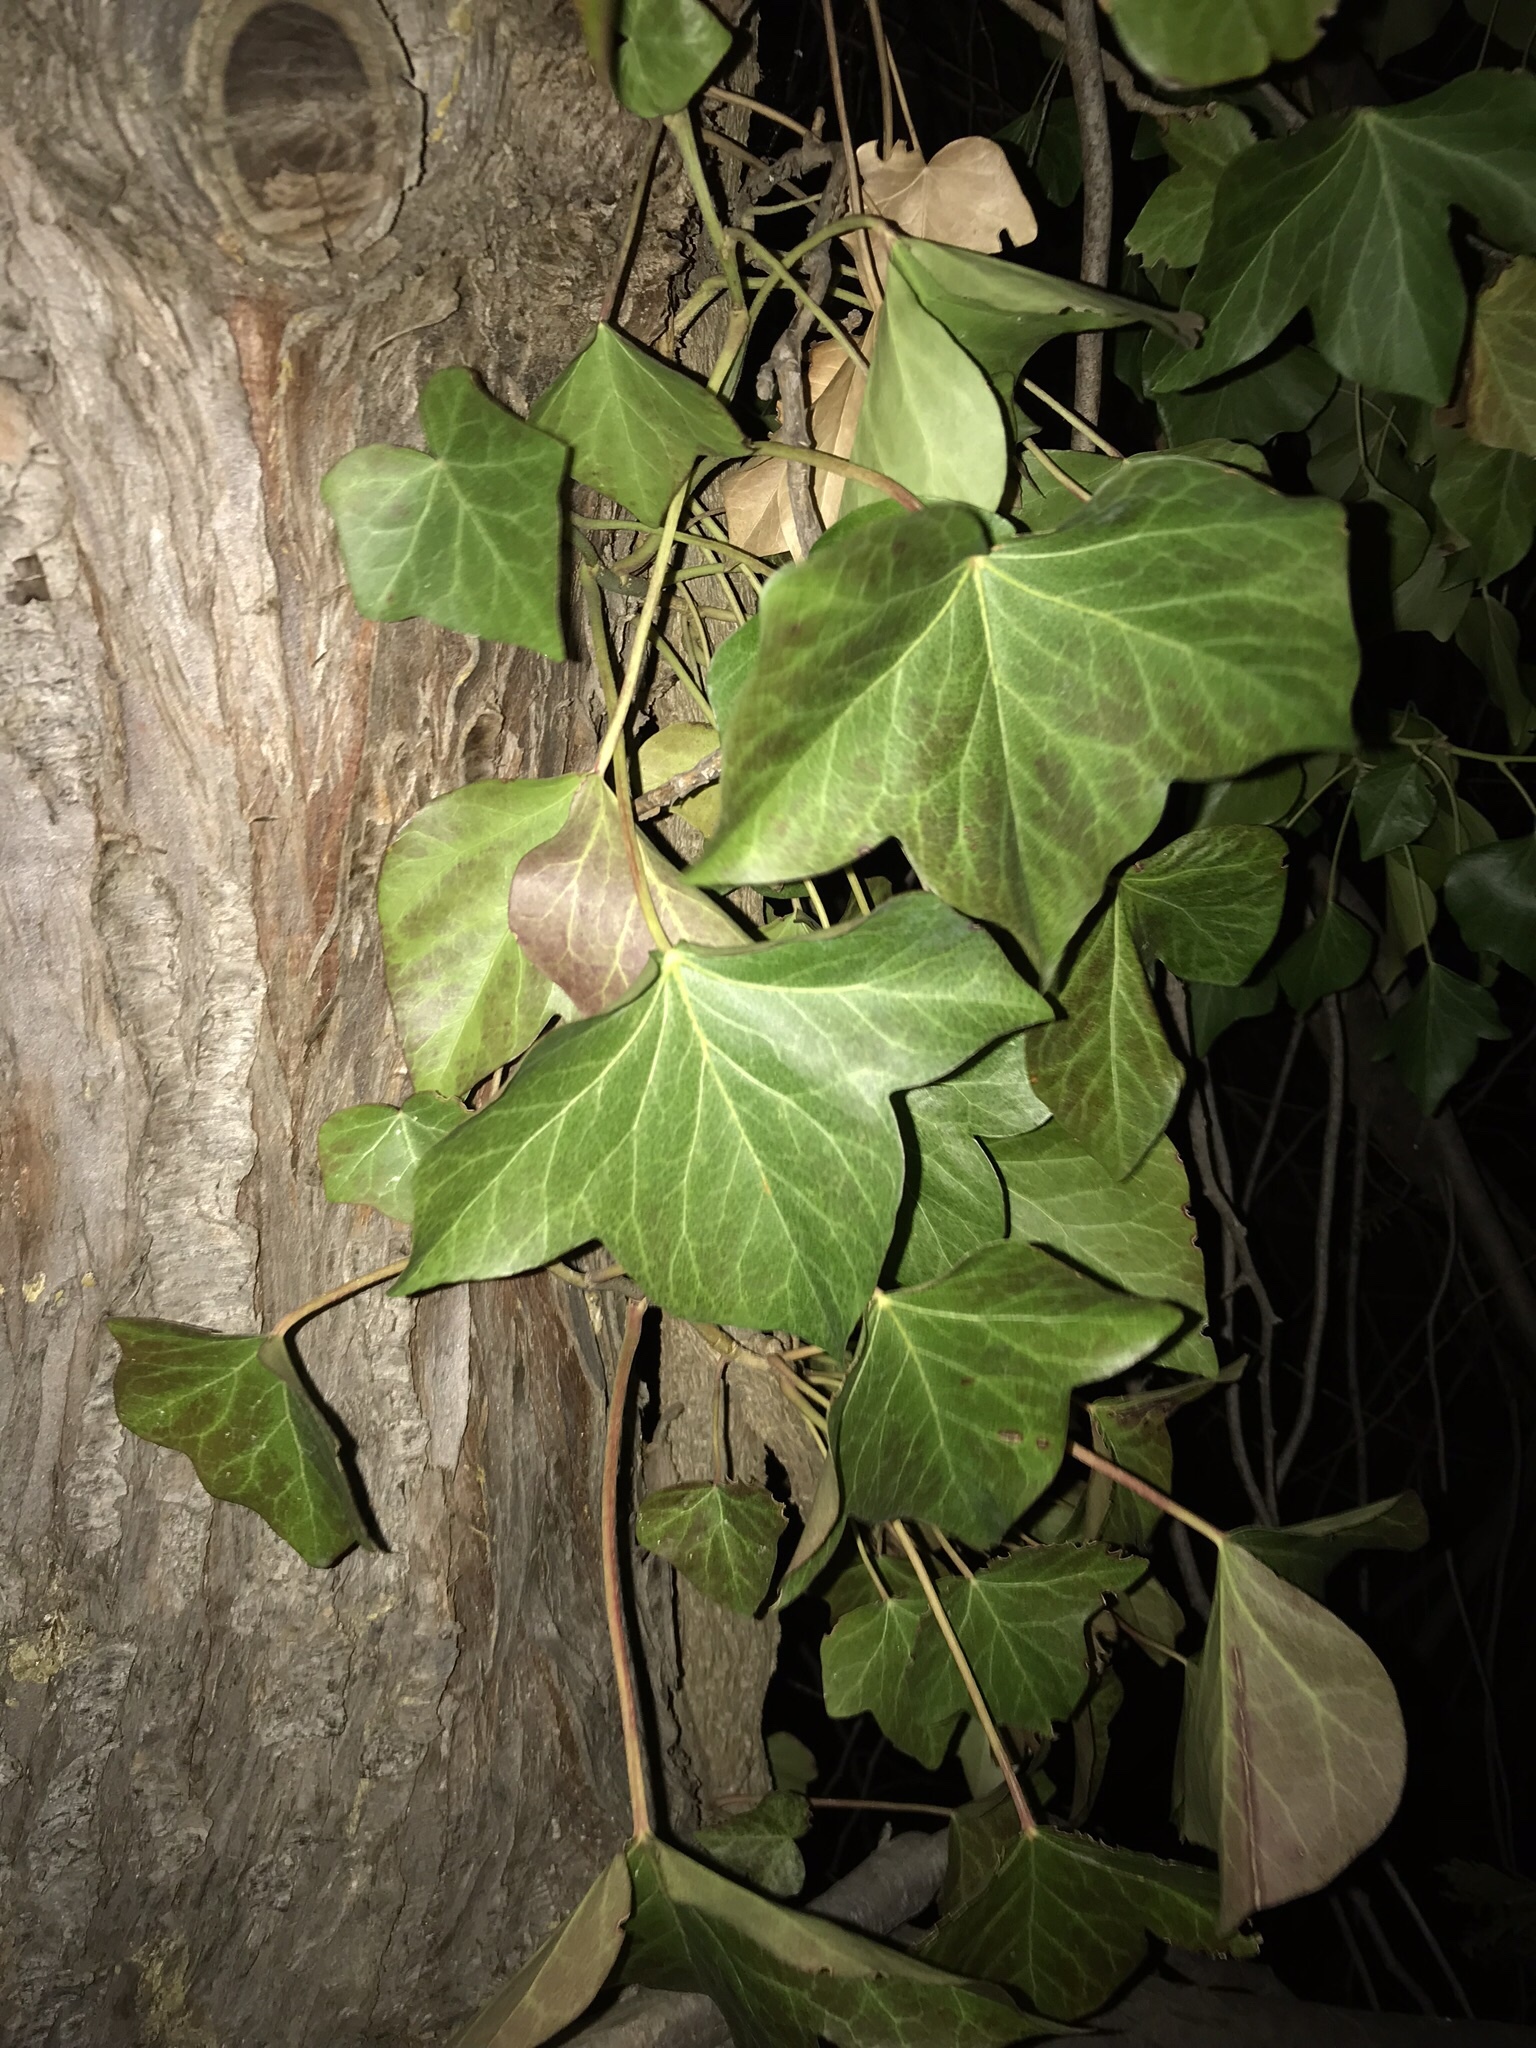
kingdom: Plantae
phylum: Tracheophyta
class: Magnoliopsida
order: Apiales
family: Araliaceae
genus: Hedera
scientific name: Hedera helix
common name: Ivy
